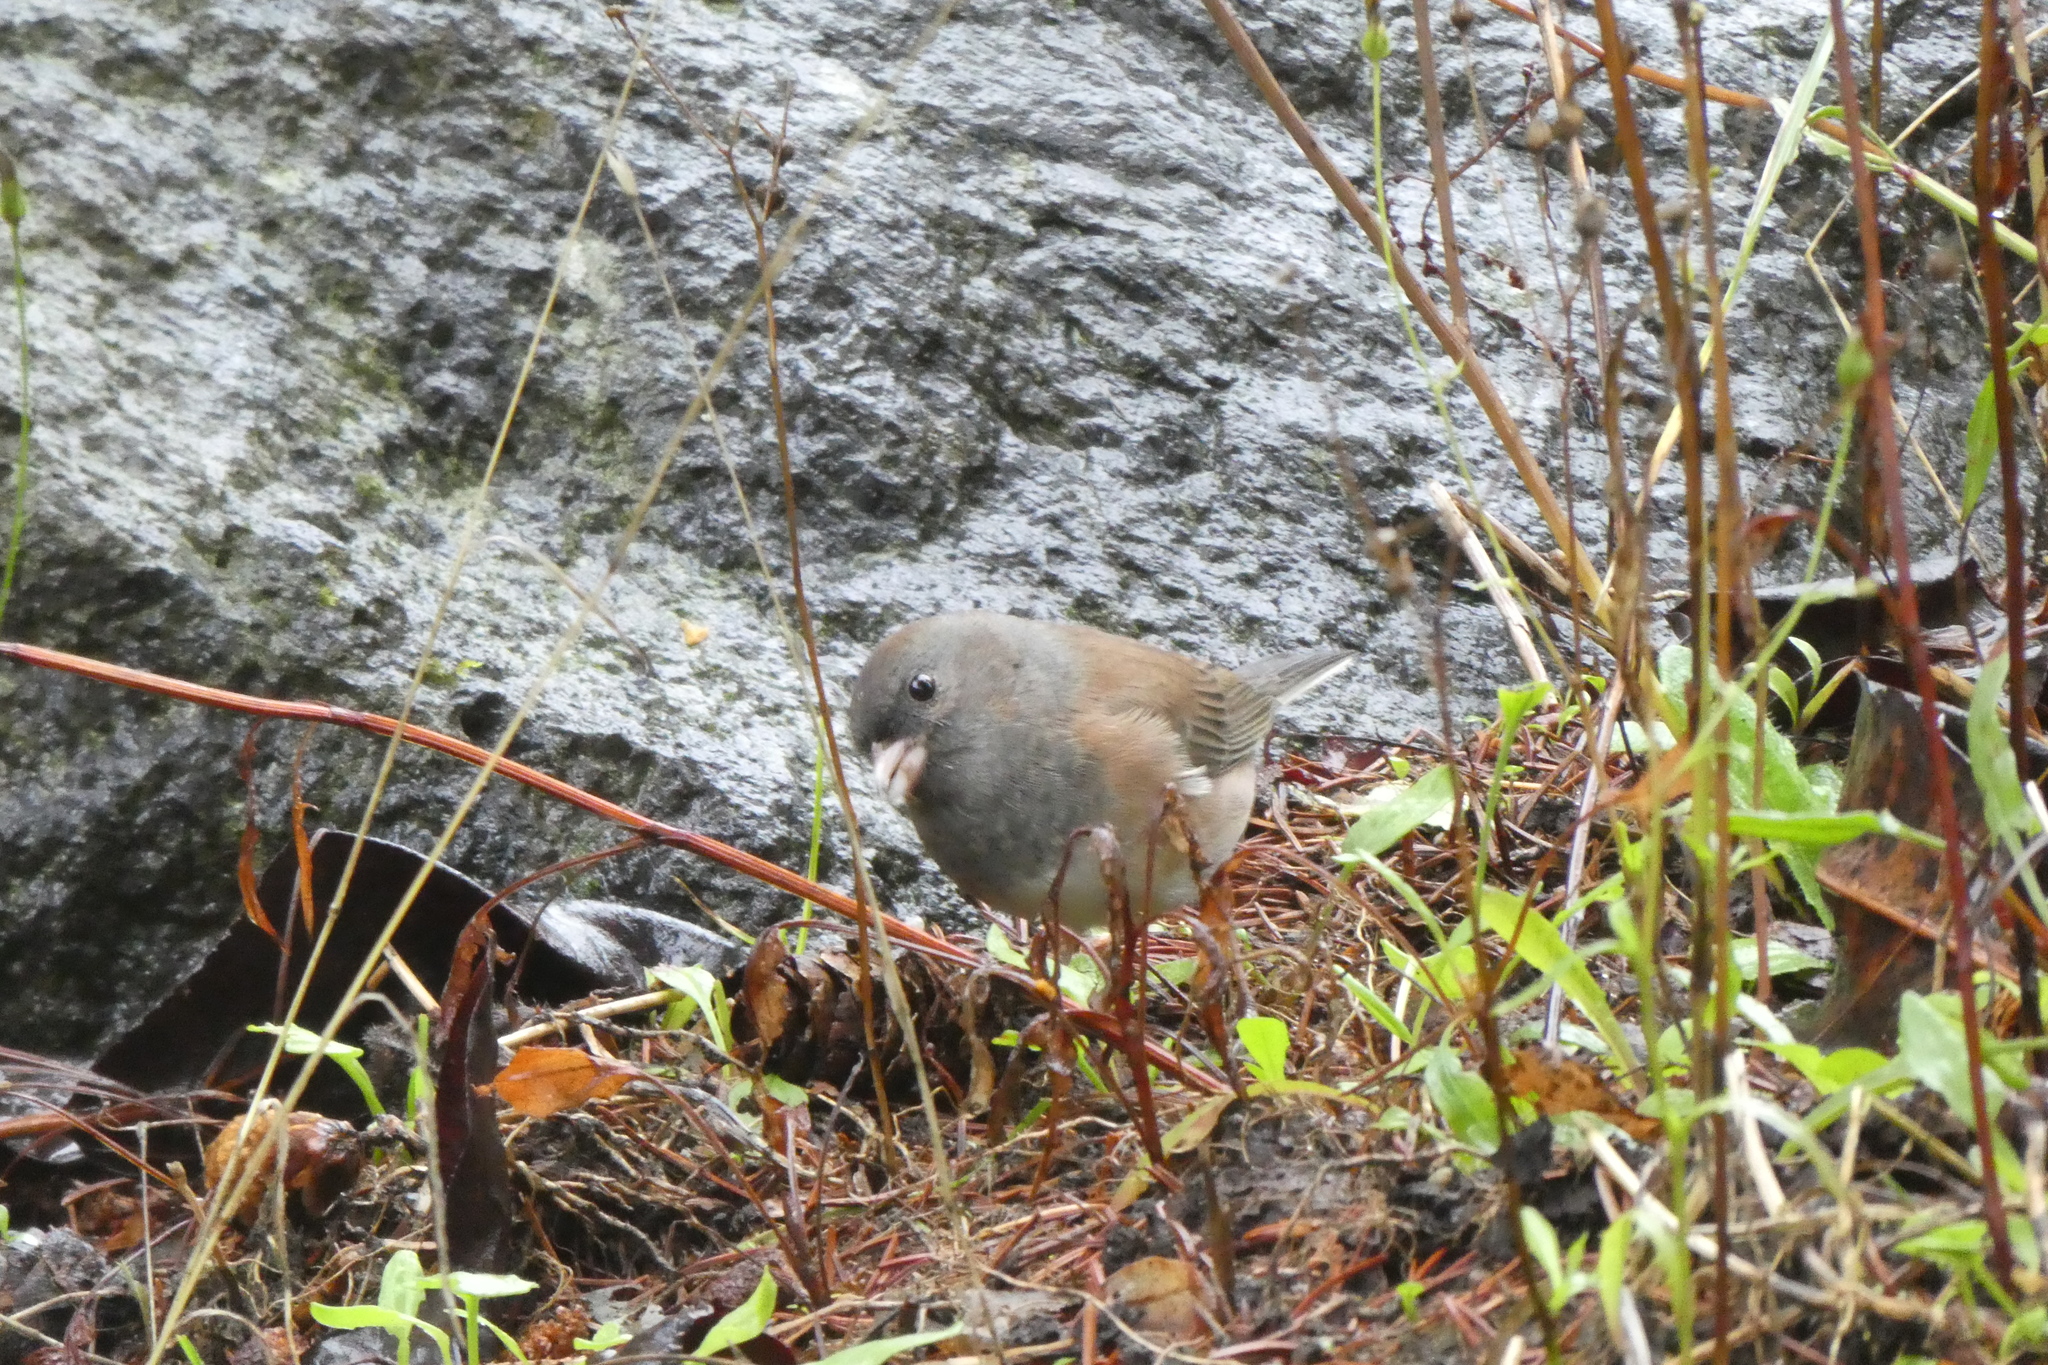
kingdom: Animalia
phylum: Chordata
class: Aves
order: Passeriformes
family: Passerellidae
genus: Junco
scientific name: Junco hyemalis
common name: Dark-eyed junco
